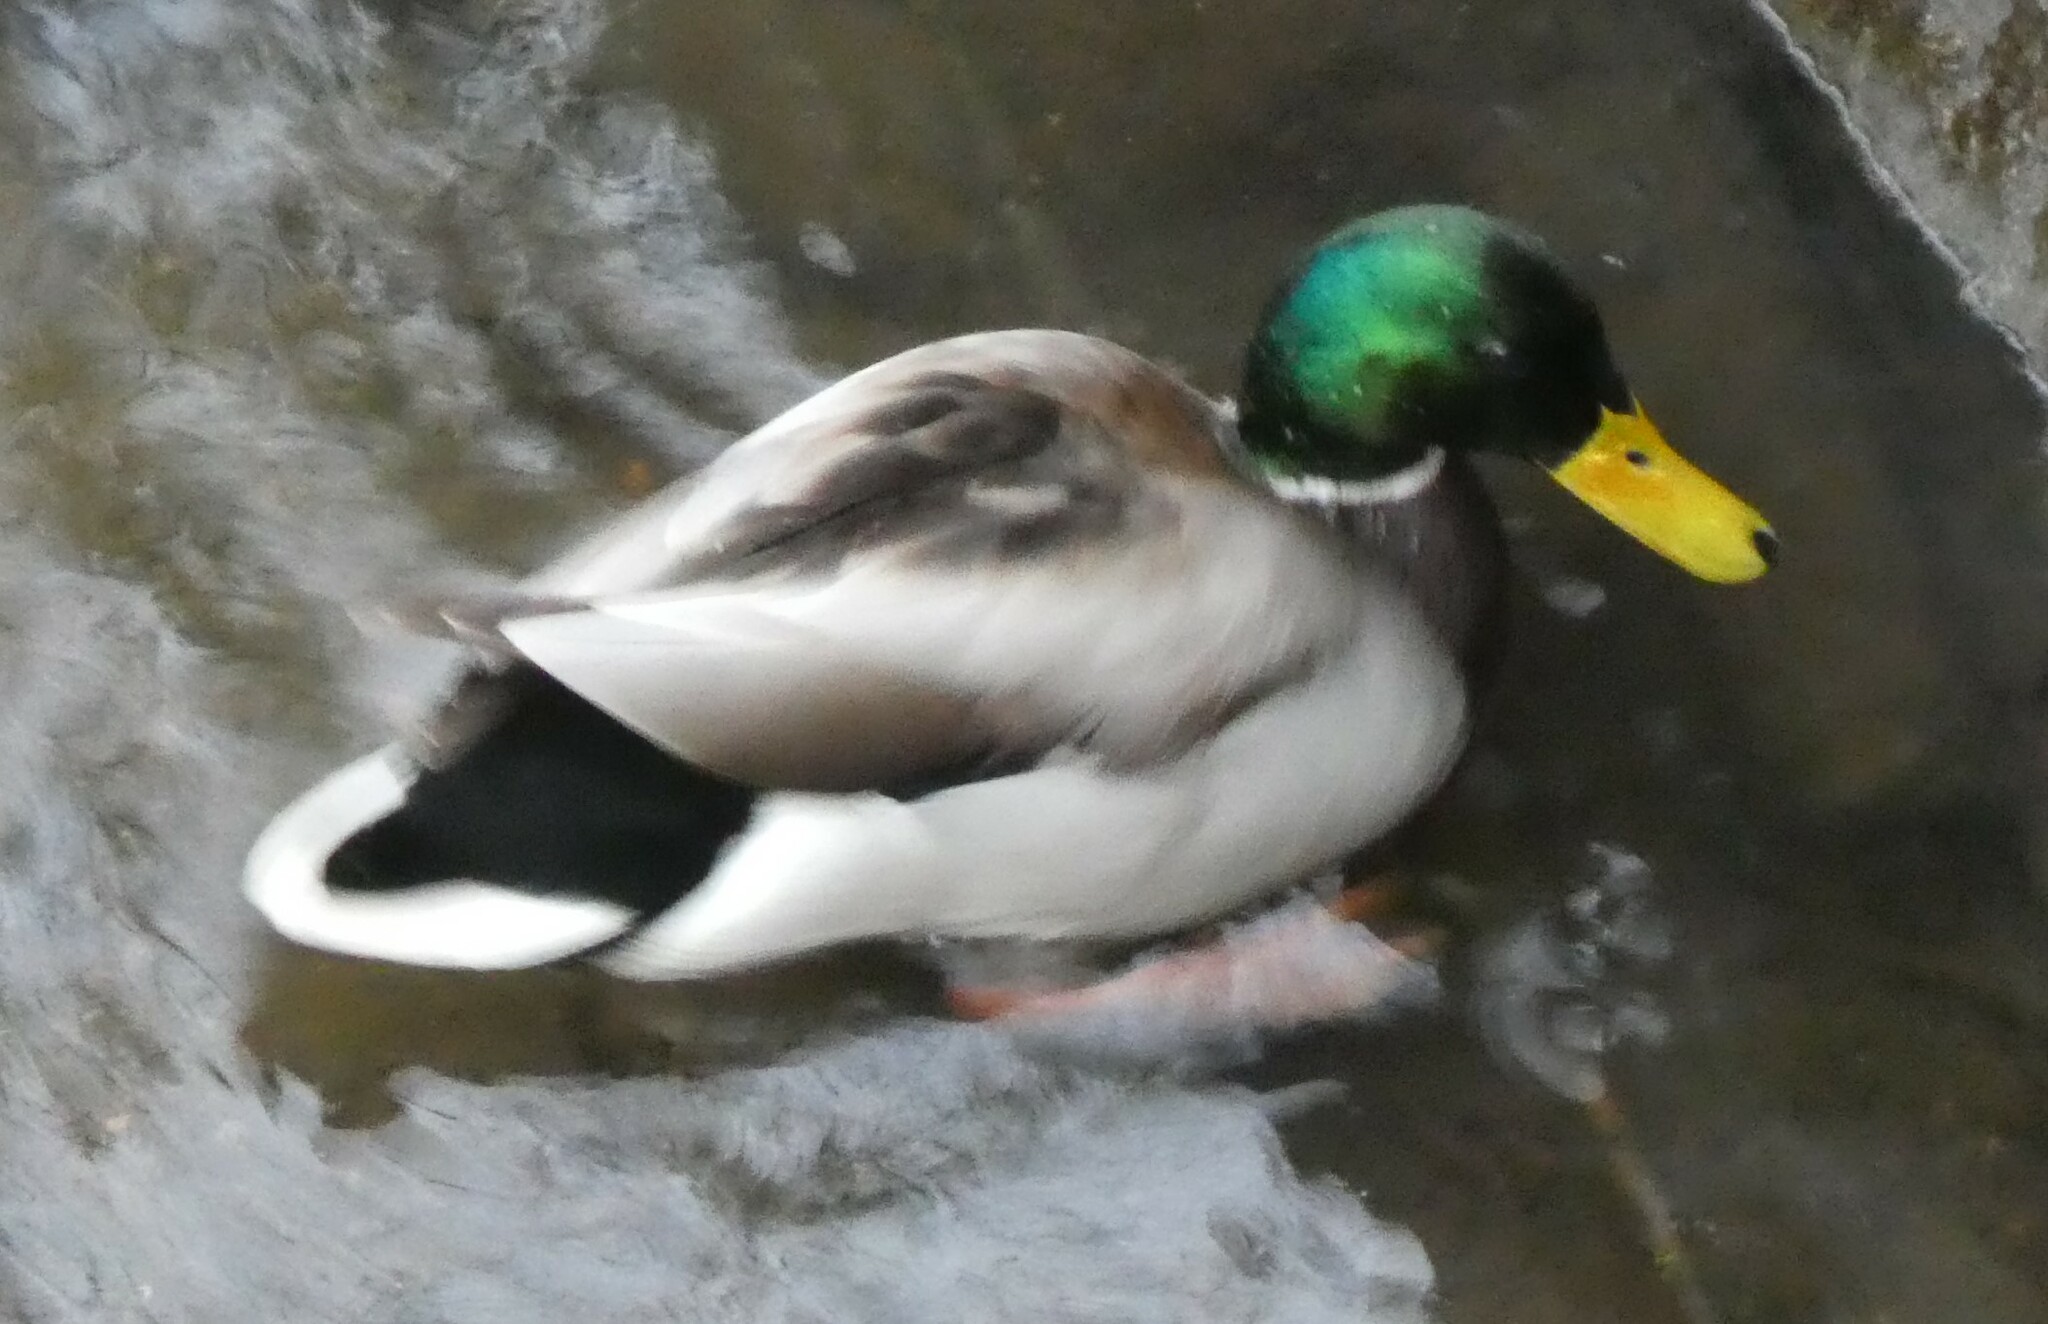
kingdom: Animalia
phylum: Chordata
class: Aves
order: Anseriformes
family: Anatidae
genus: Anas
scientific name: Anas platyrhynchos
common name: Mallard
